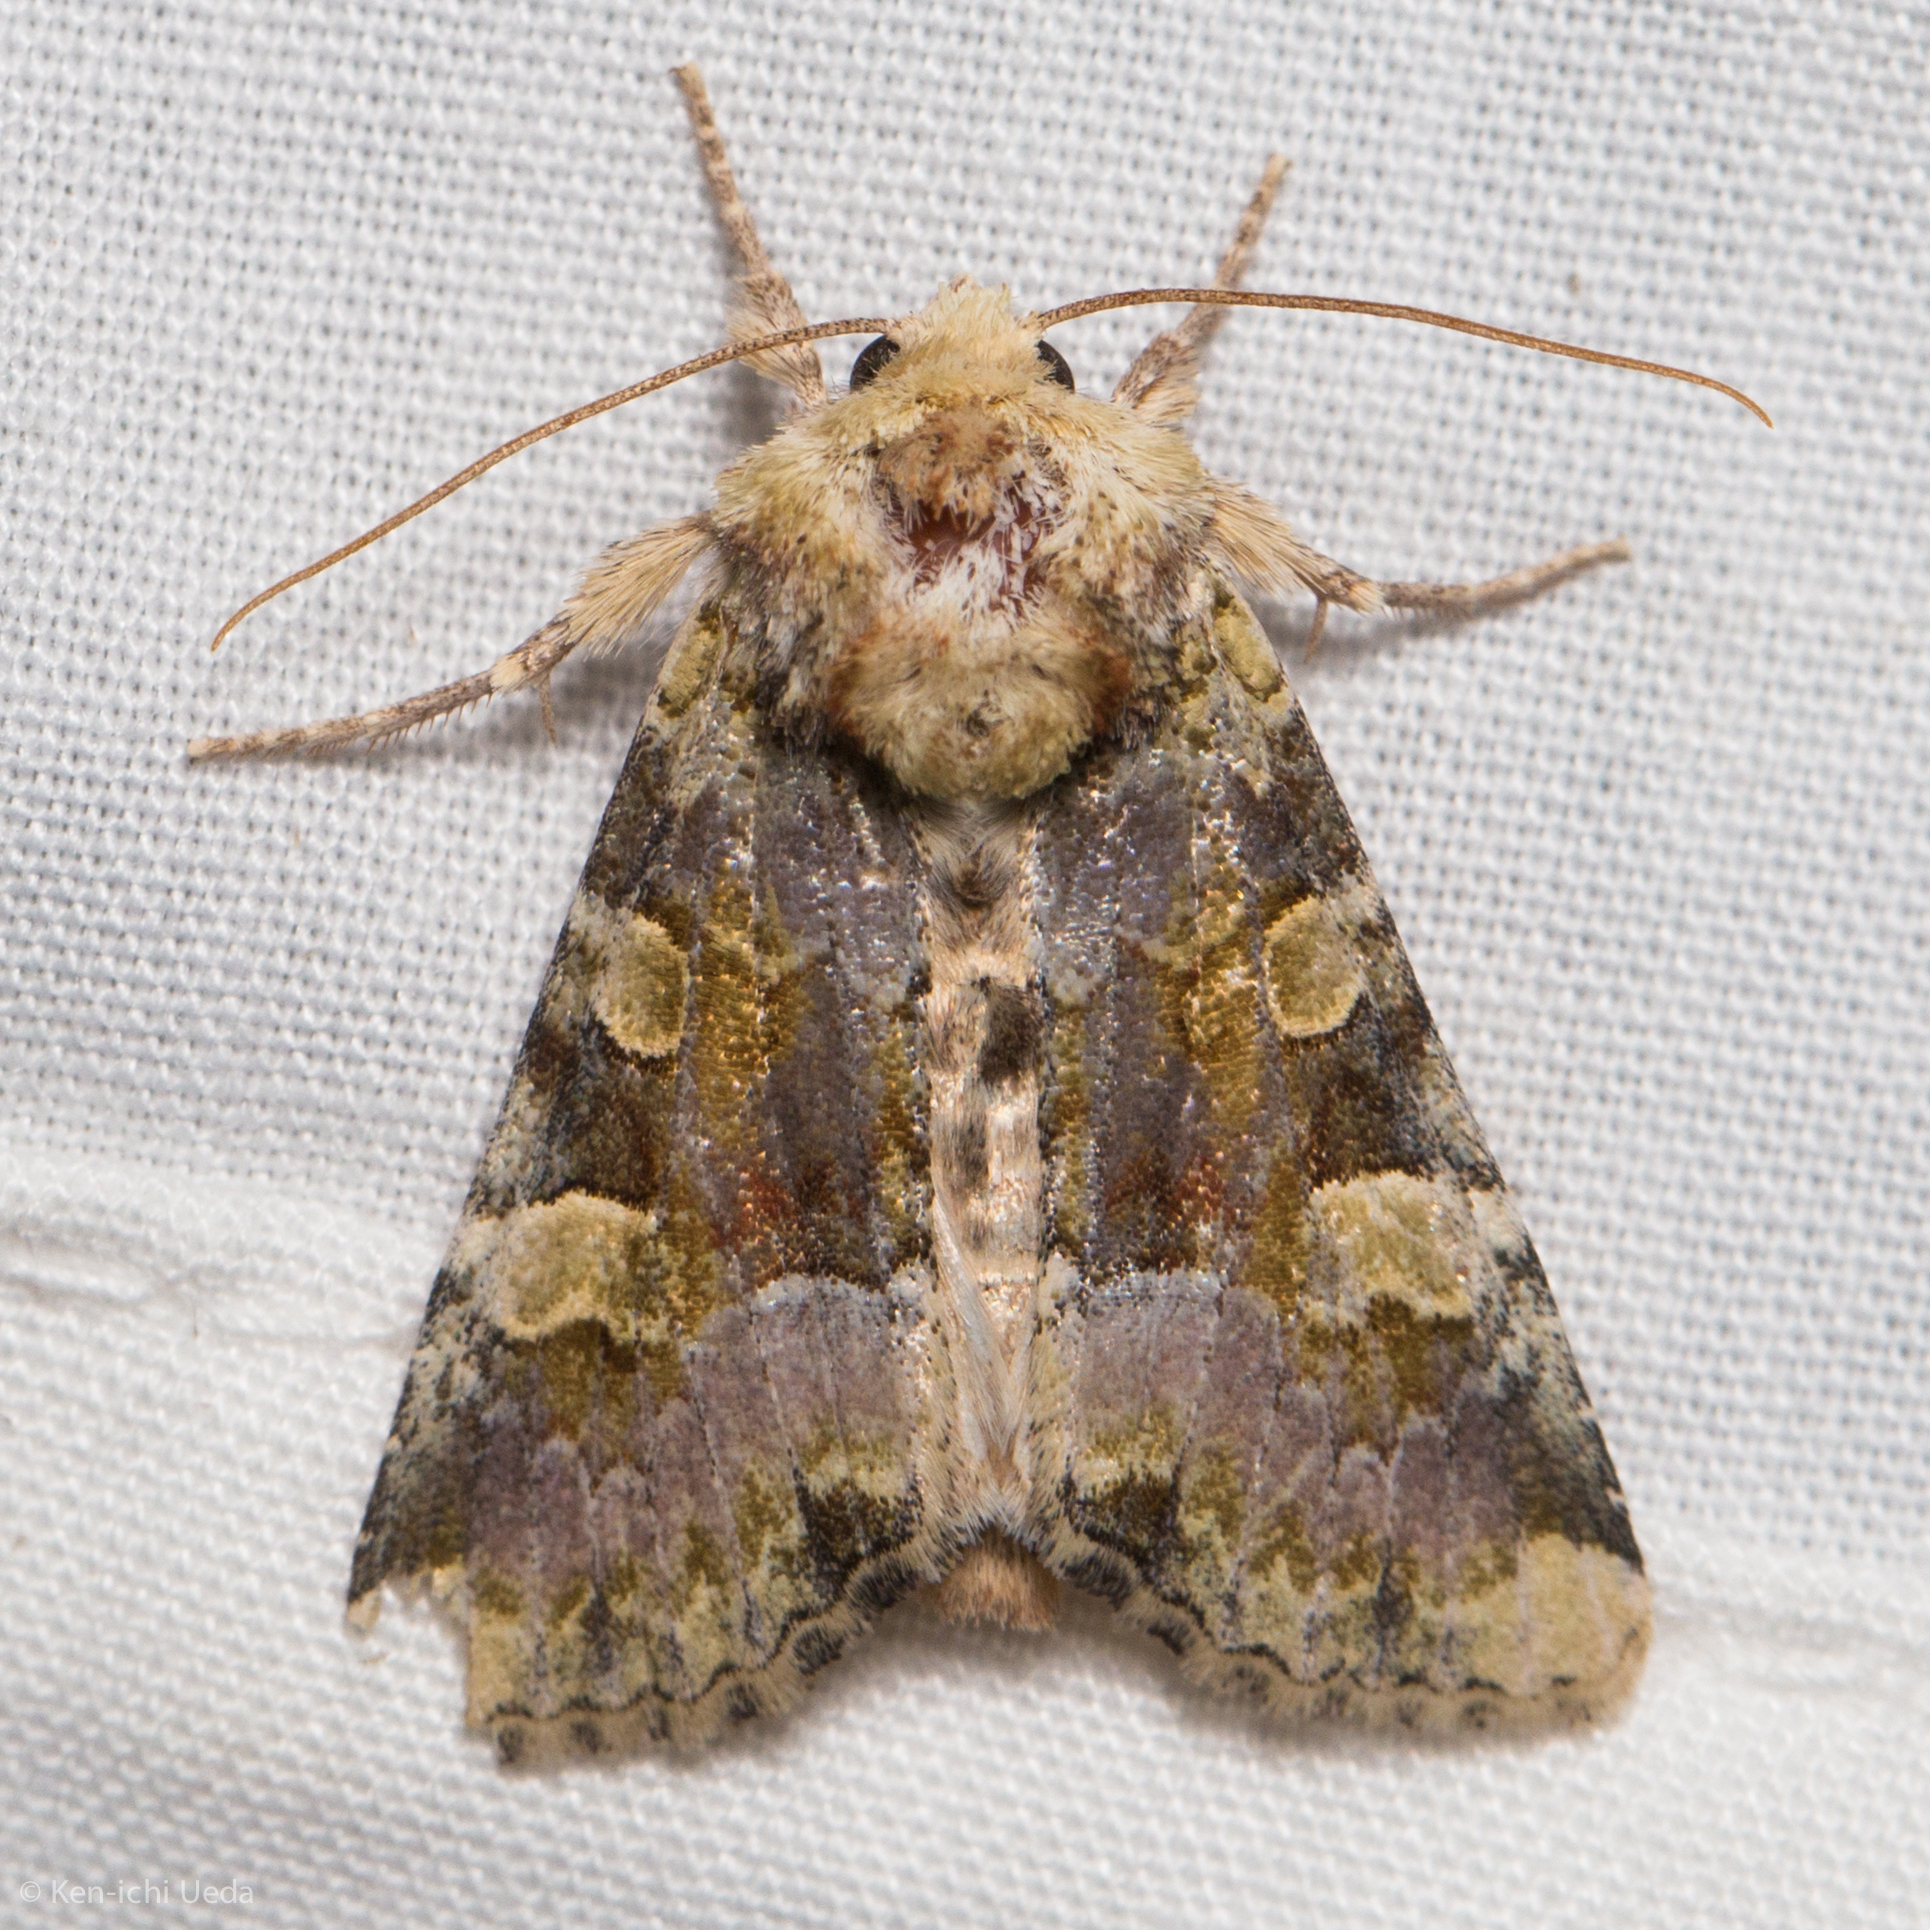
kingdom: Animalia
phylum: Arthropoda
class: Insecta
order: Lepidoptera
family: Noctuidae
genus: Oligia
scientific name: Oligia violacea
